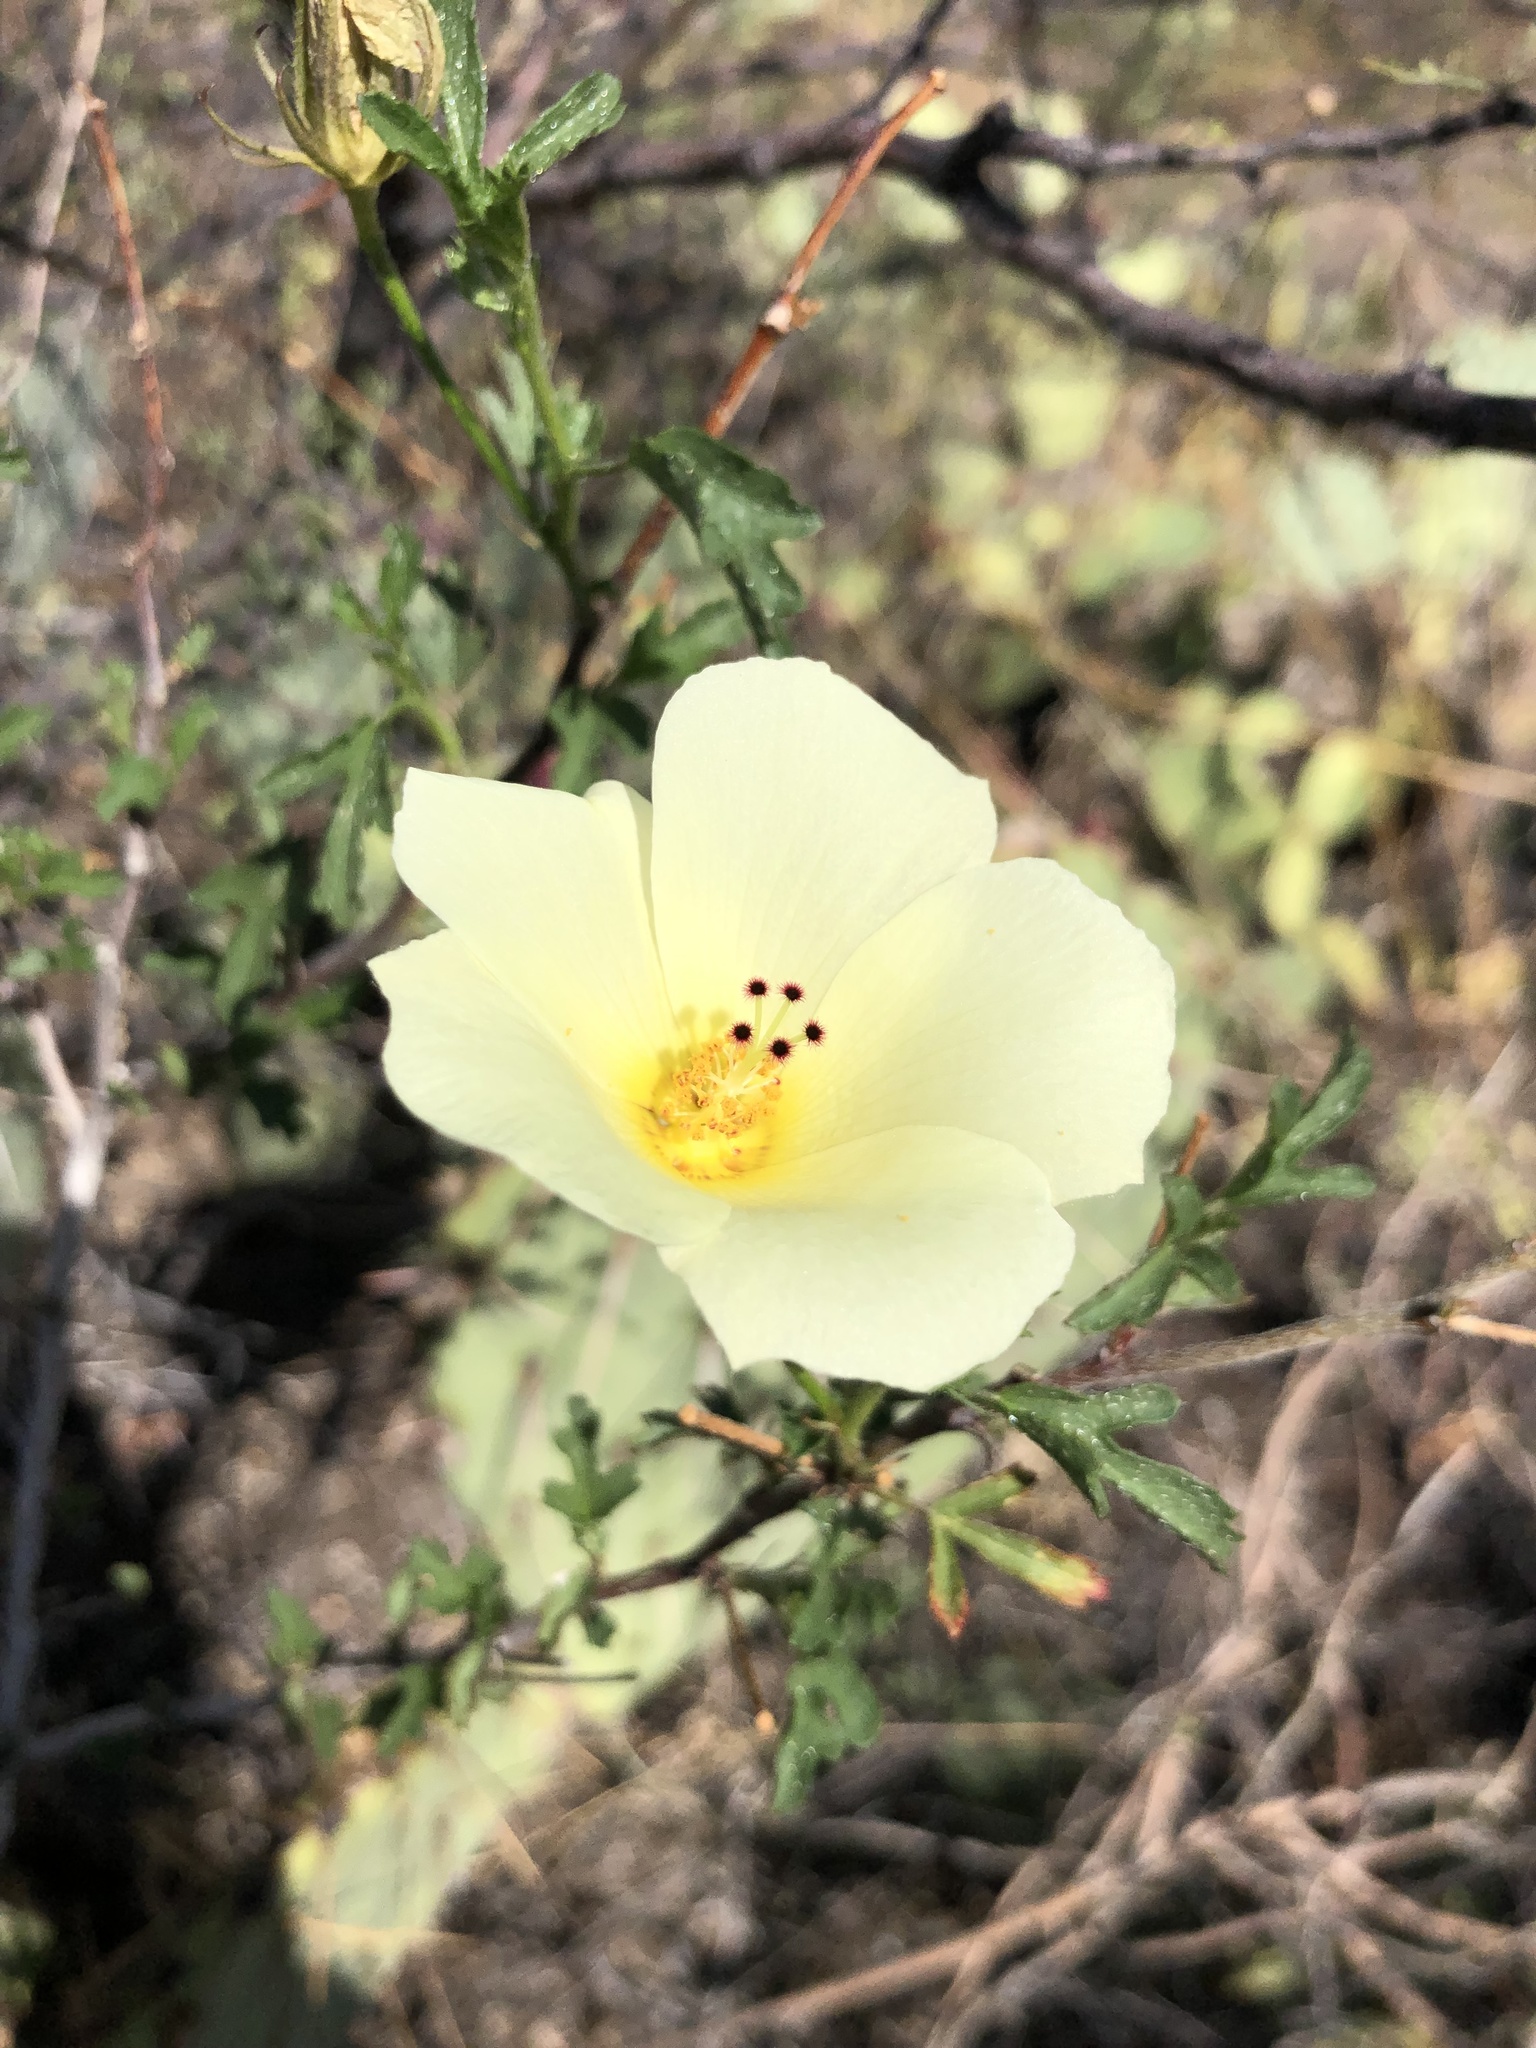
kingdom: Plantae
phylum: Tracheophyta
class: Magnoliopsida
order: Malvales
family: Malvaceae
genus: Hibiscus
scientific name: Hibiscus coulteri
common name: Desert rose-mallow
